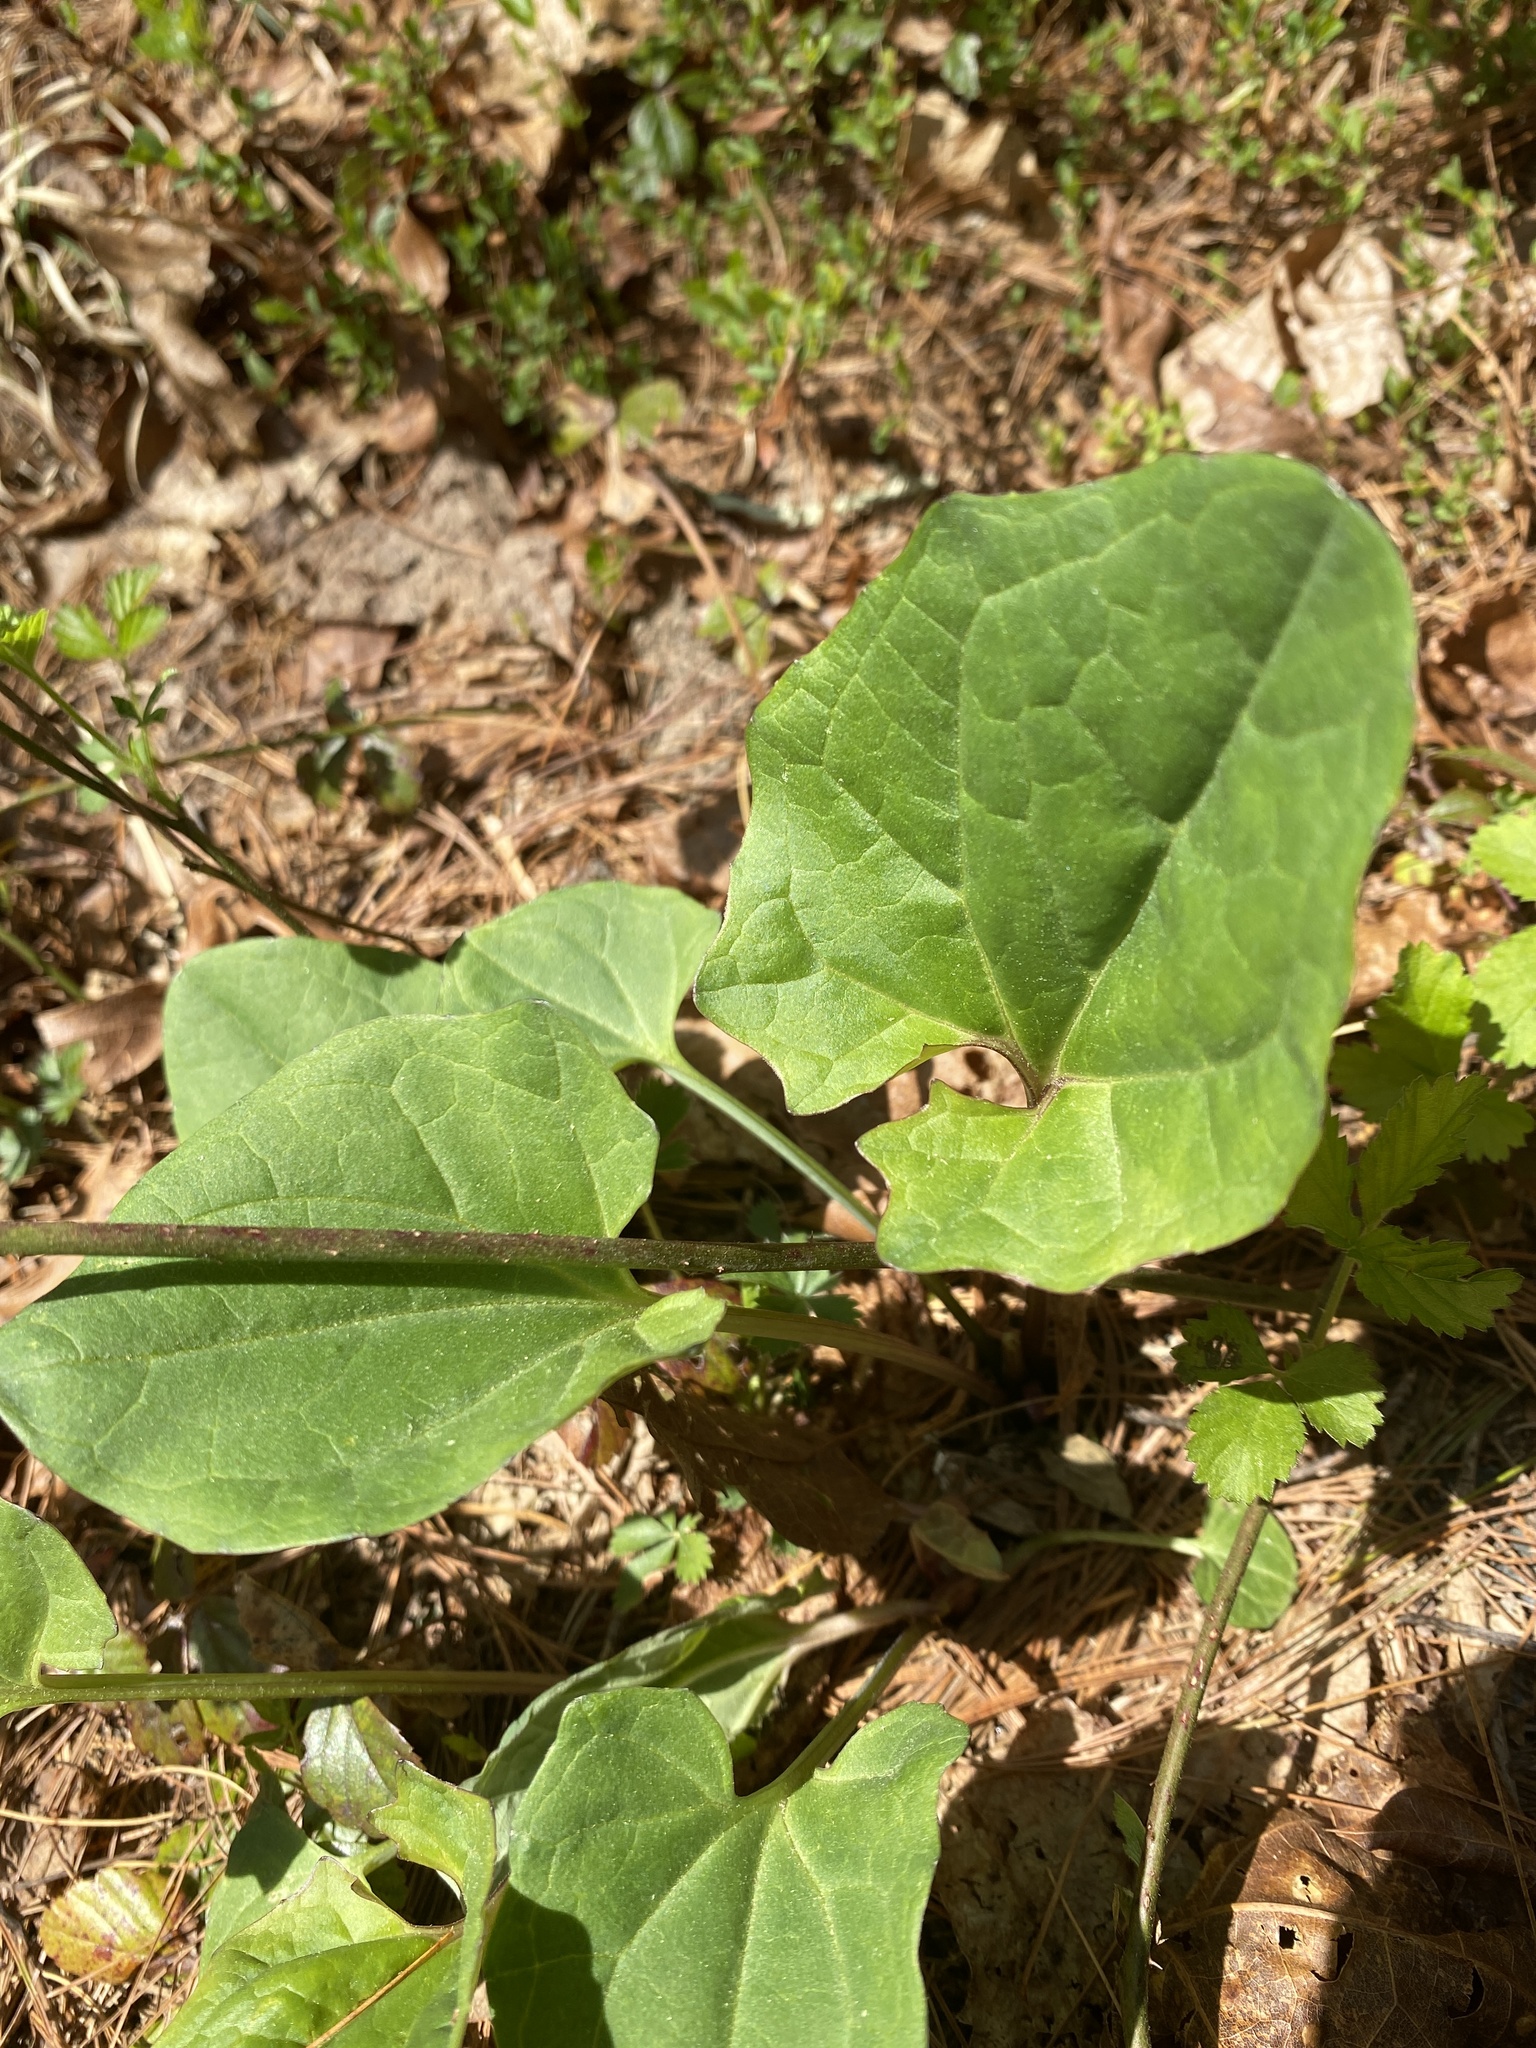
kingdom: Plantae
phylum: Tracheophyta
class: Magnoliopsida
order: Asterales
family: Asteraceae
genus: Arnoglossum
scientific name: Arnoglossum atriplicifolium
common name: Pale indian-plantain
